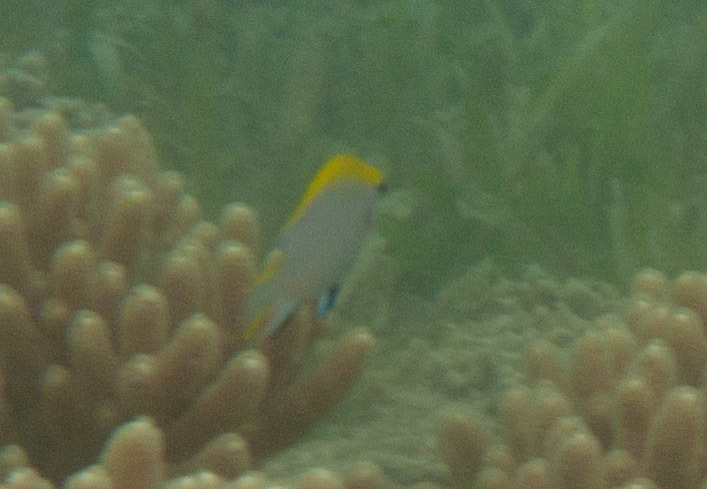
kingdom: Animalia
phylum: Chordata
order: Perciformes
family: Pomacentridae
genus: Neoglyphidodon
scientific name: Neoglyphidodon melas
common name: Black damsel
